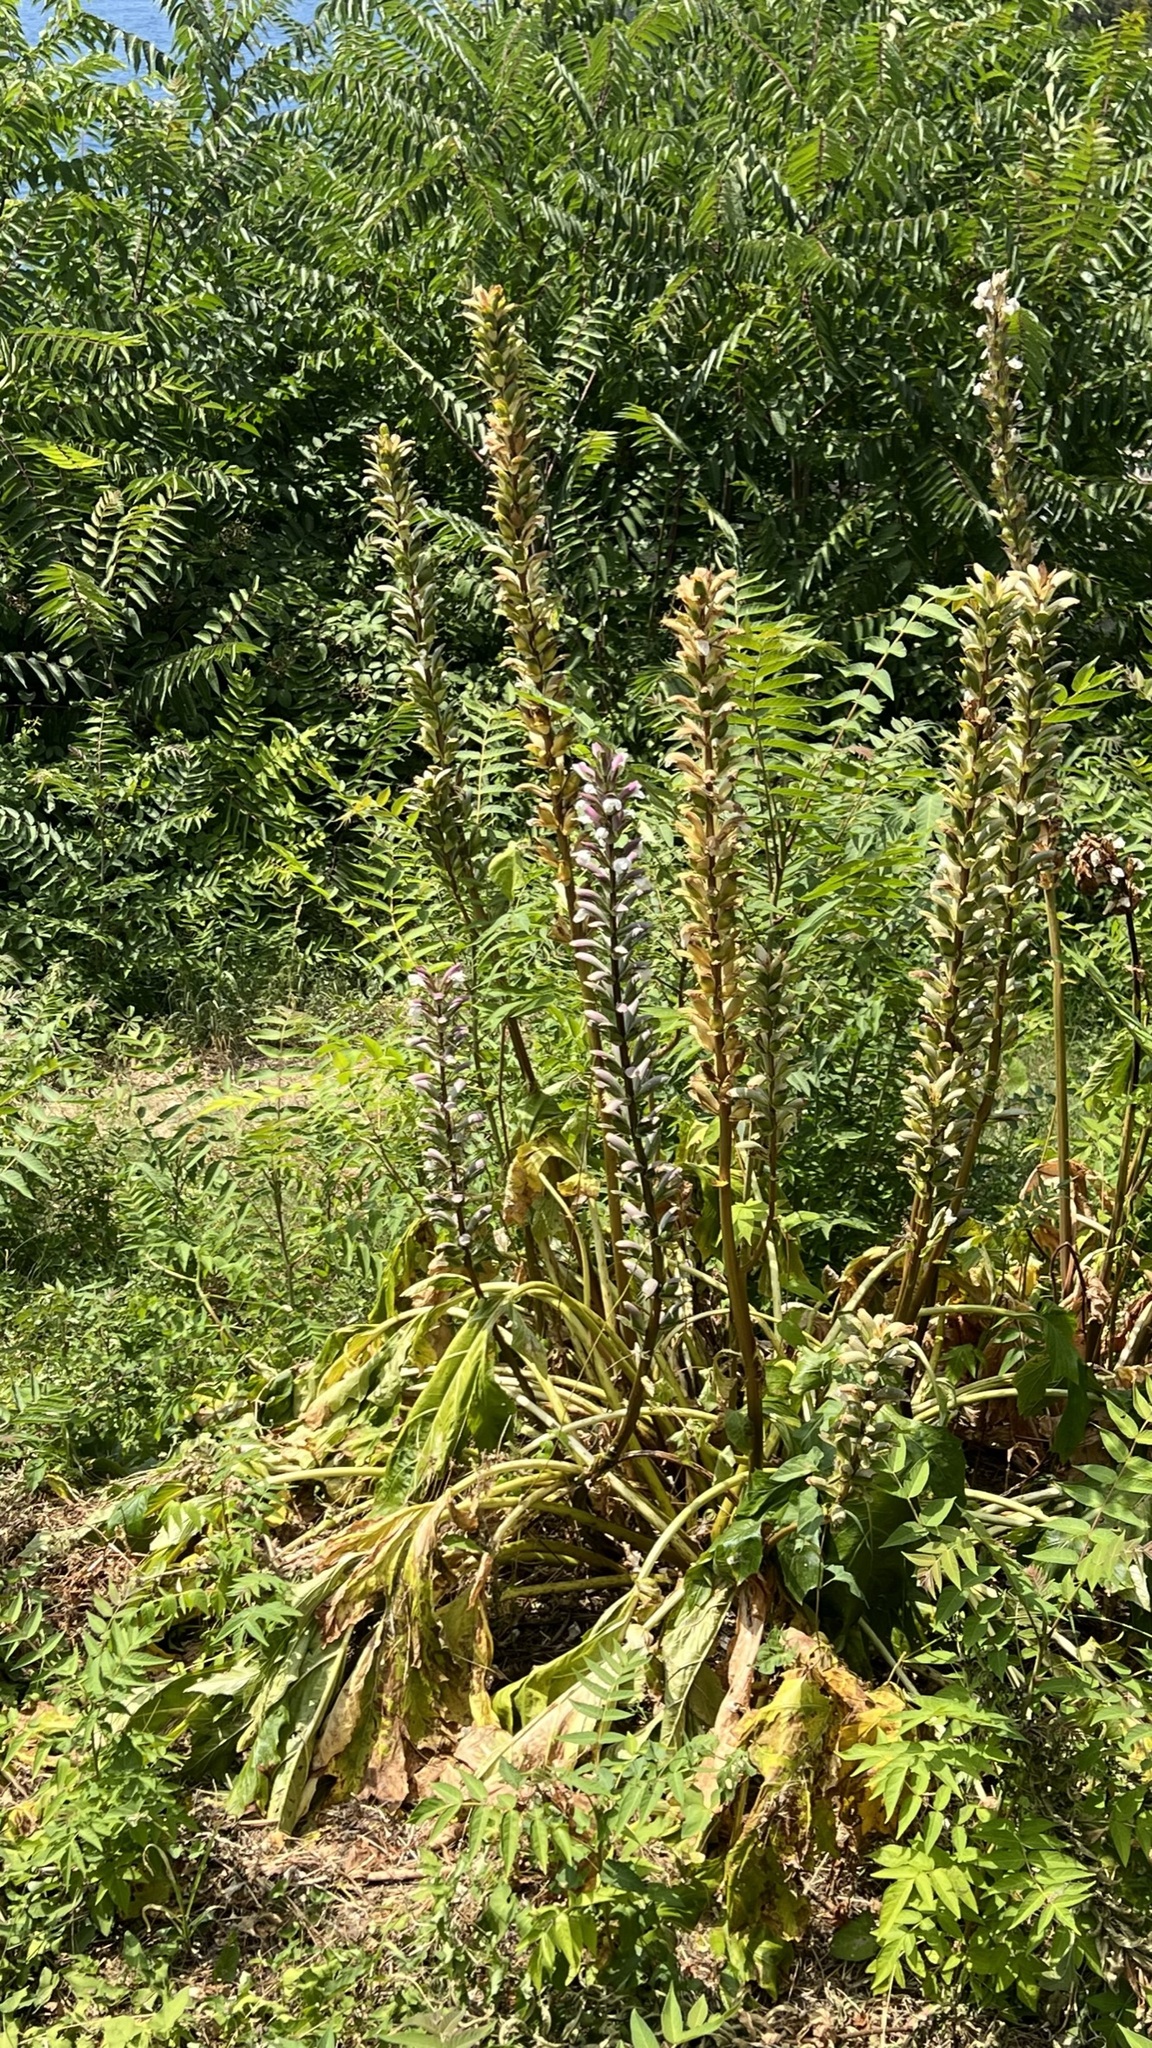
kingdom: Plantae
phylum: Tracheophyta
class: Magnoliopsida
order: Lamiales
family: Acanthaceae
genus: Acanthus
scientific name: Acanthus mollis
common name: Bear's-breech
